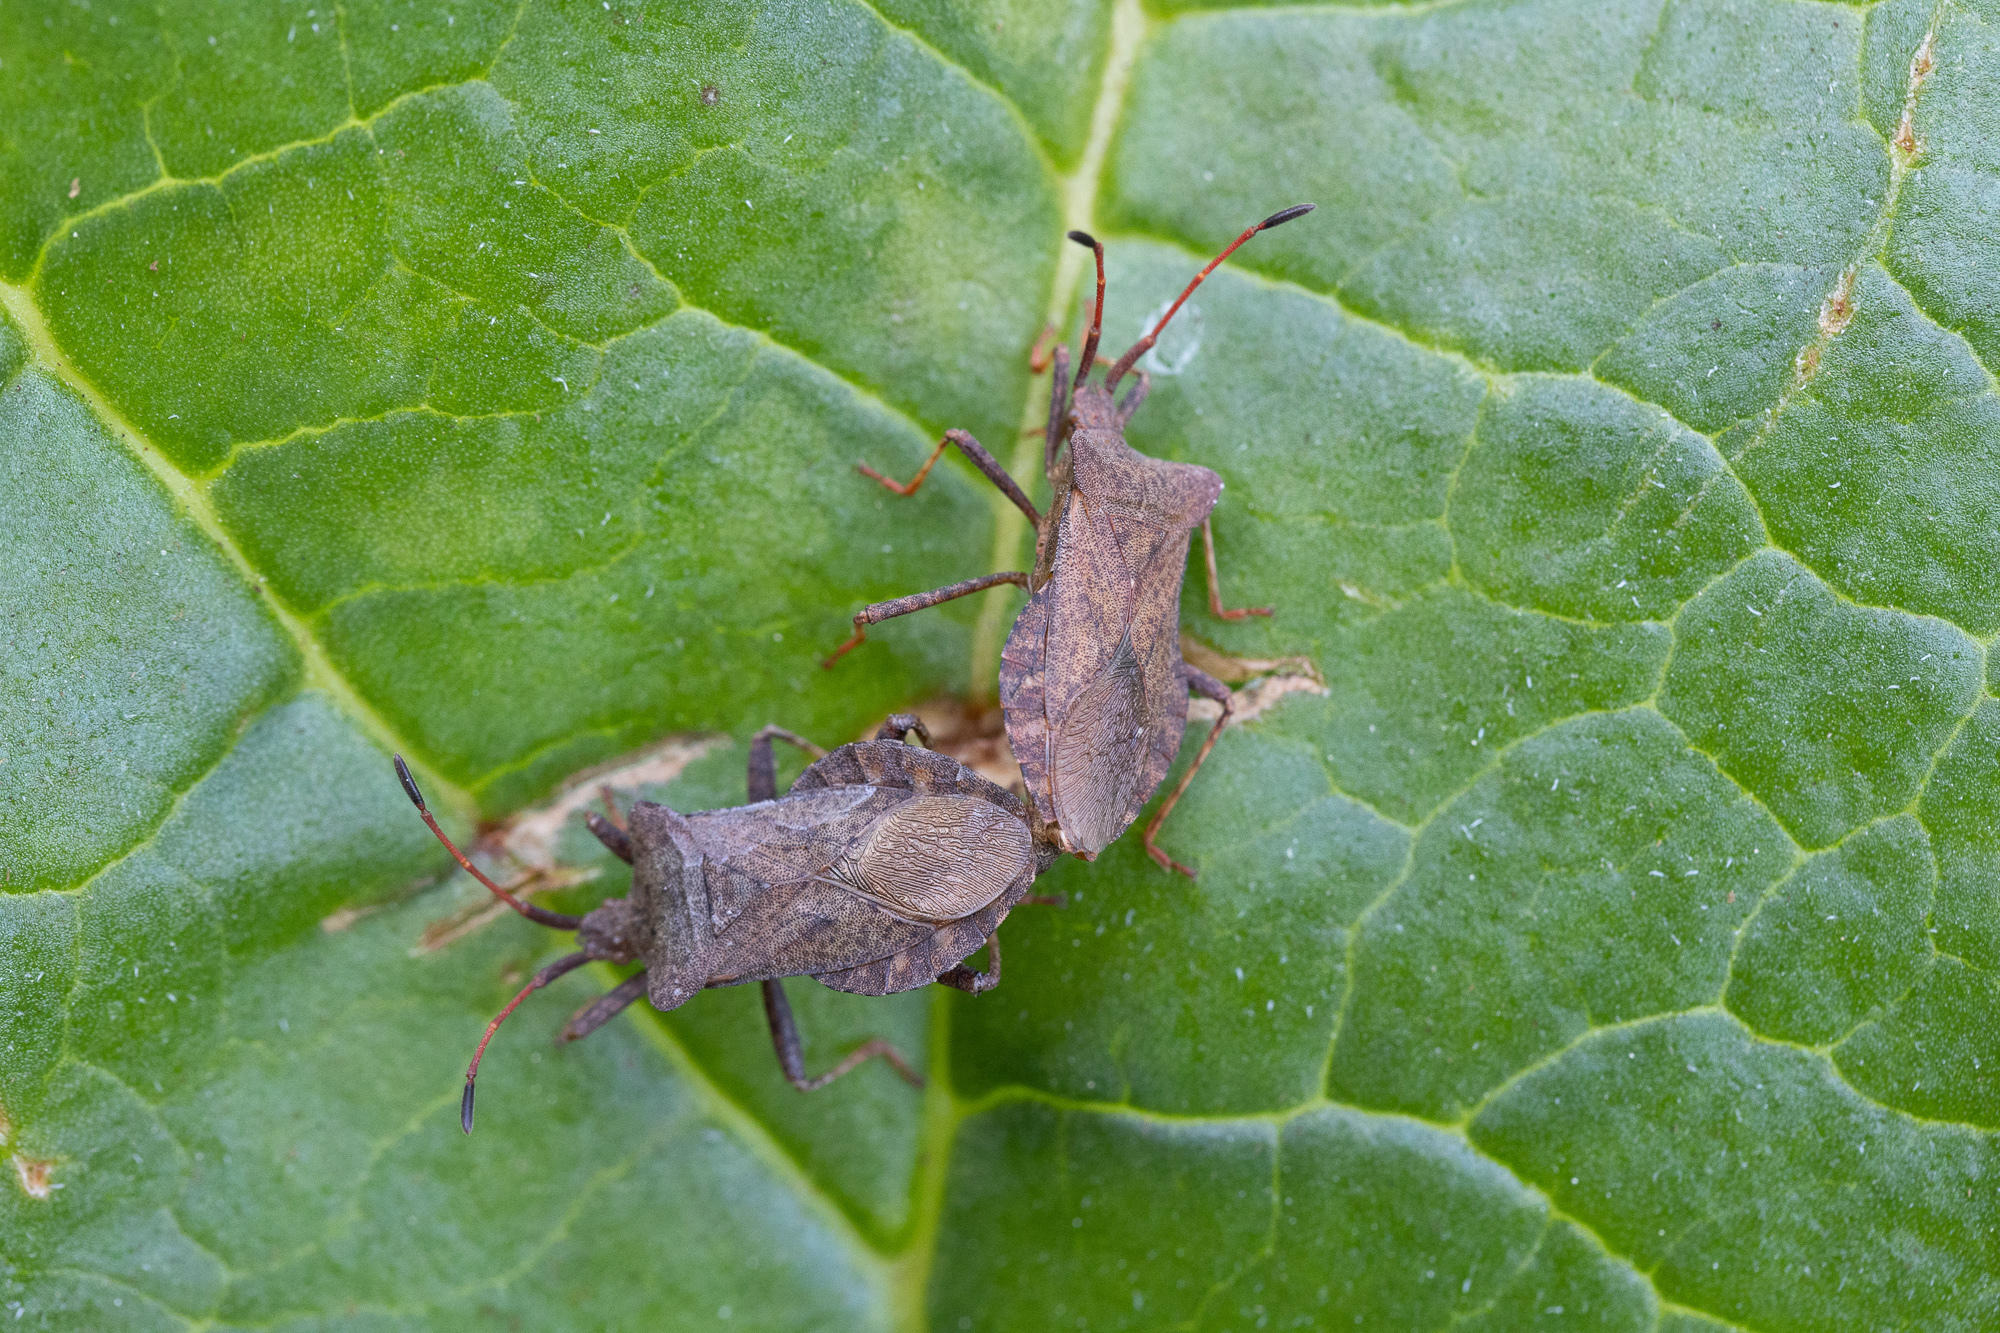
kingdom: Animalia
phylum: Arthropoda
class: Insecta
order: Hemiptera
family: Coreidae
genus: Coreus
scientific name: Coreus marginatus
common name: Dock bug
